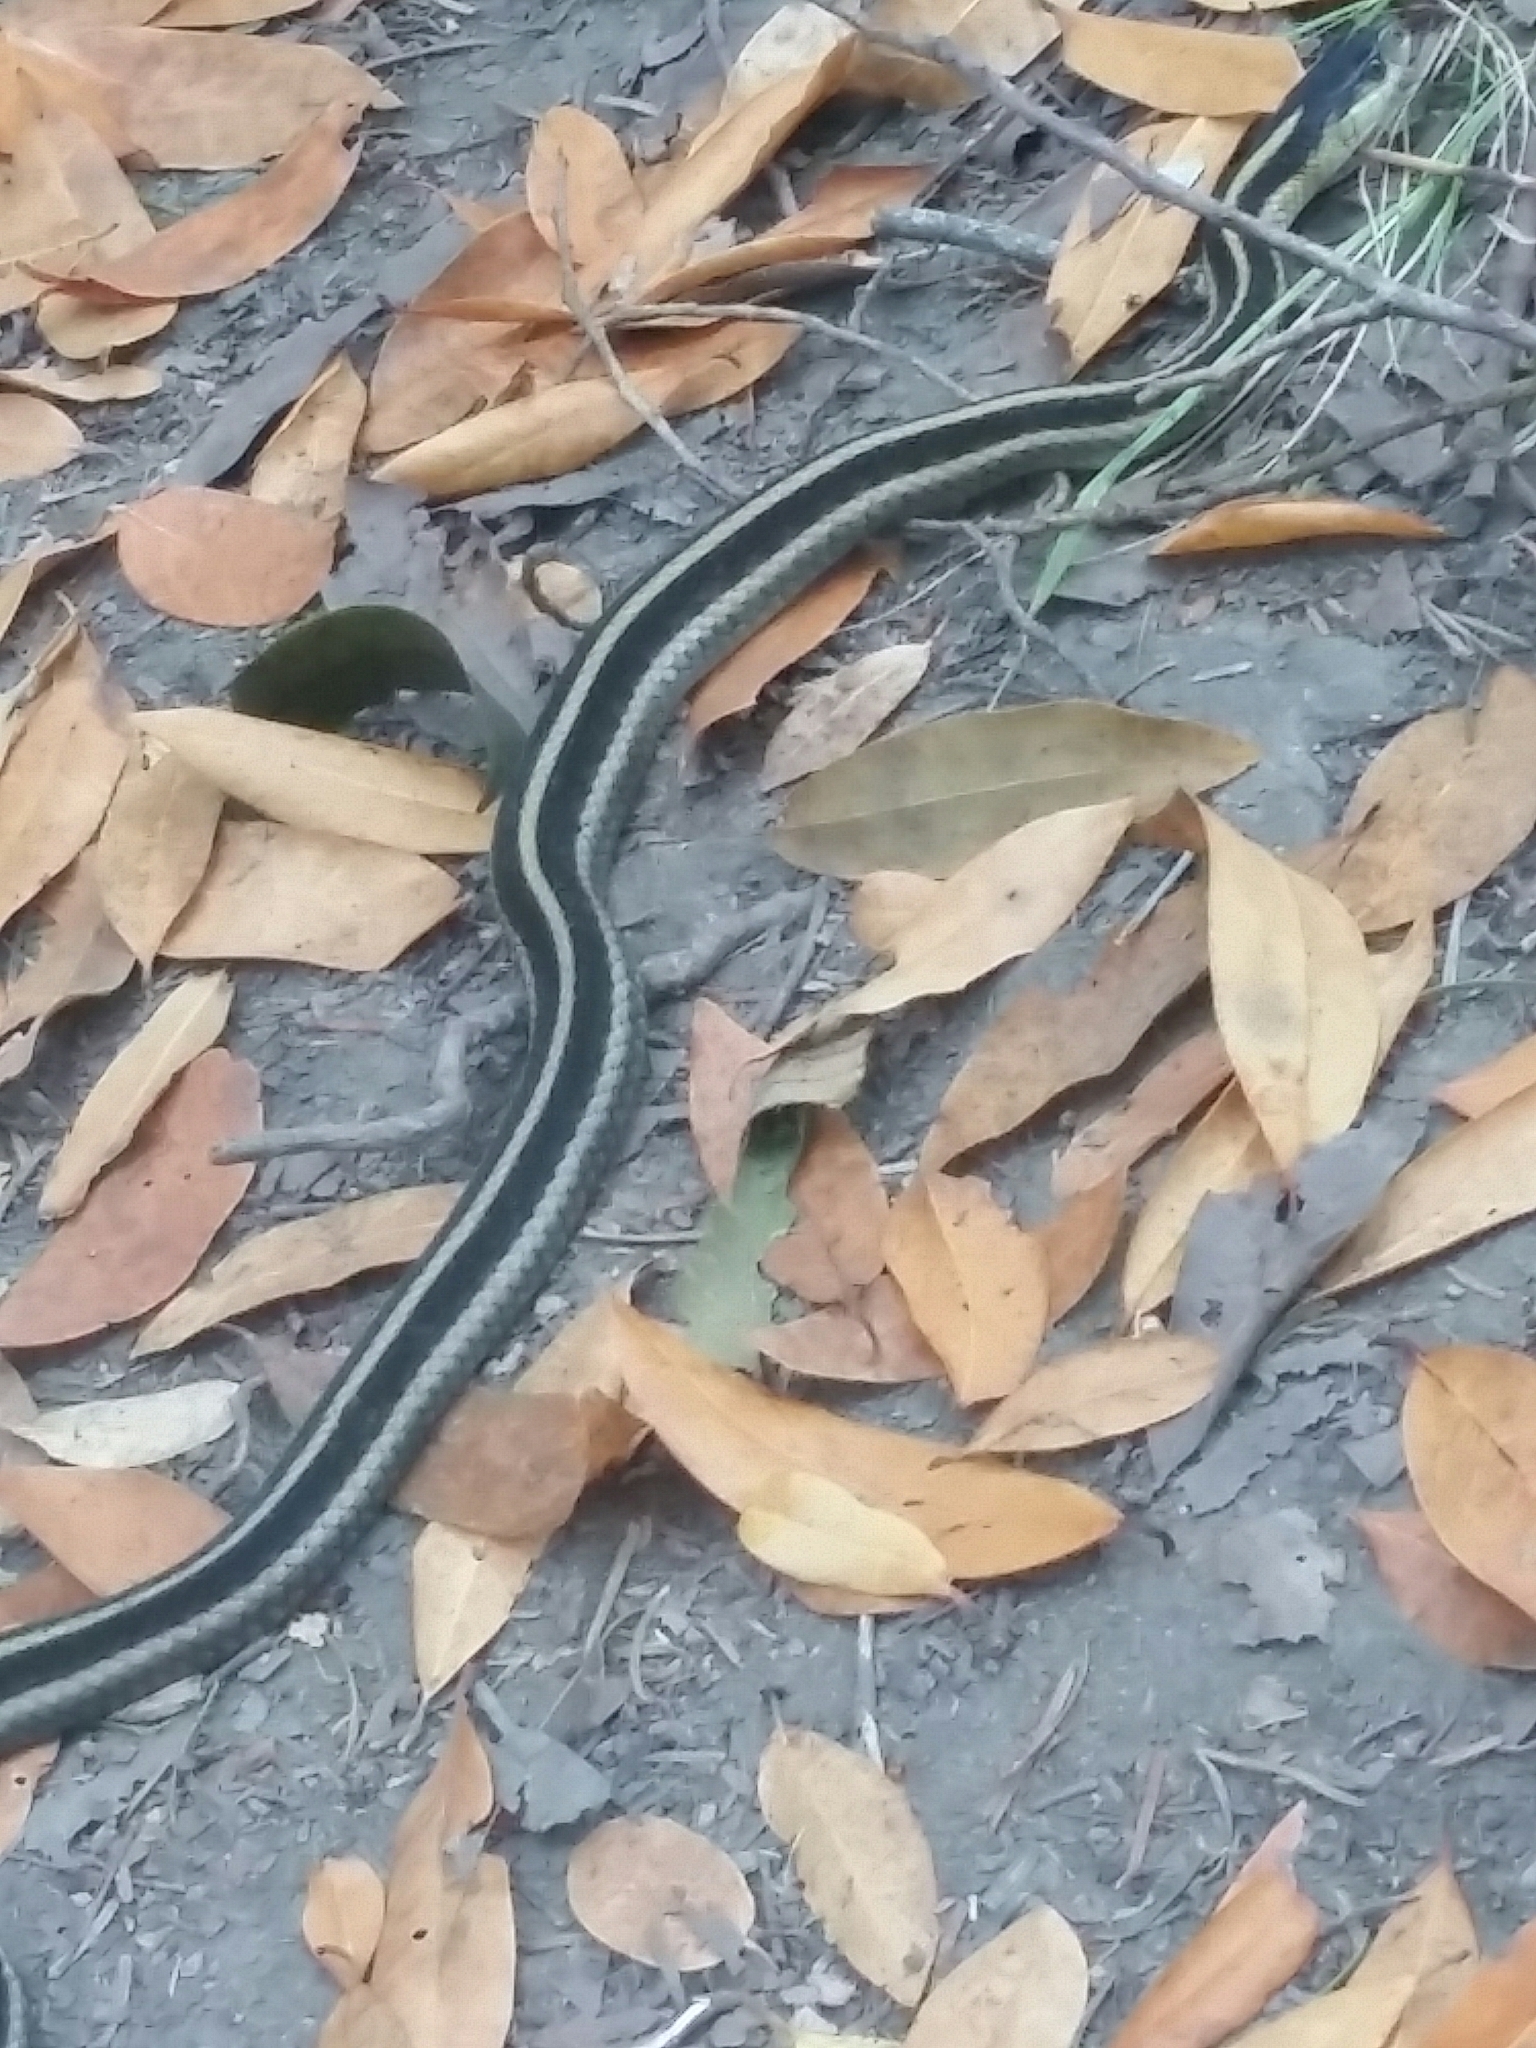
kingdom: Animalia
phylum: Chordata
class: Squamata
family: Colubridae
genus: Thamnophis
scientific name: Thamnophis sirtalis
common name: Common garter snake
